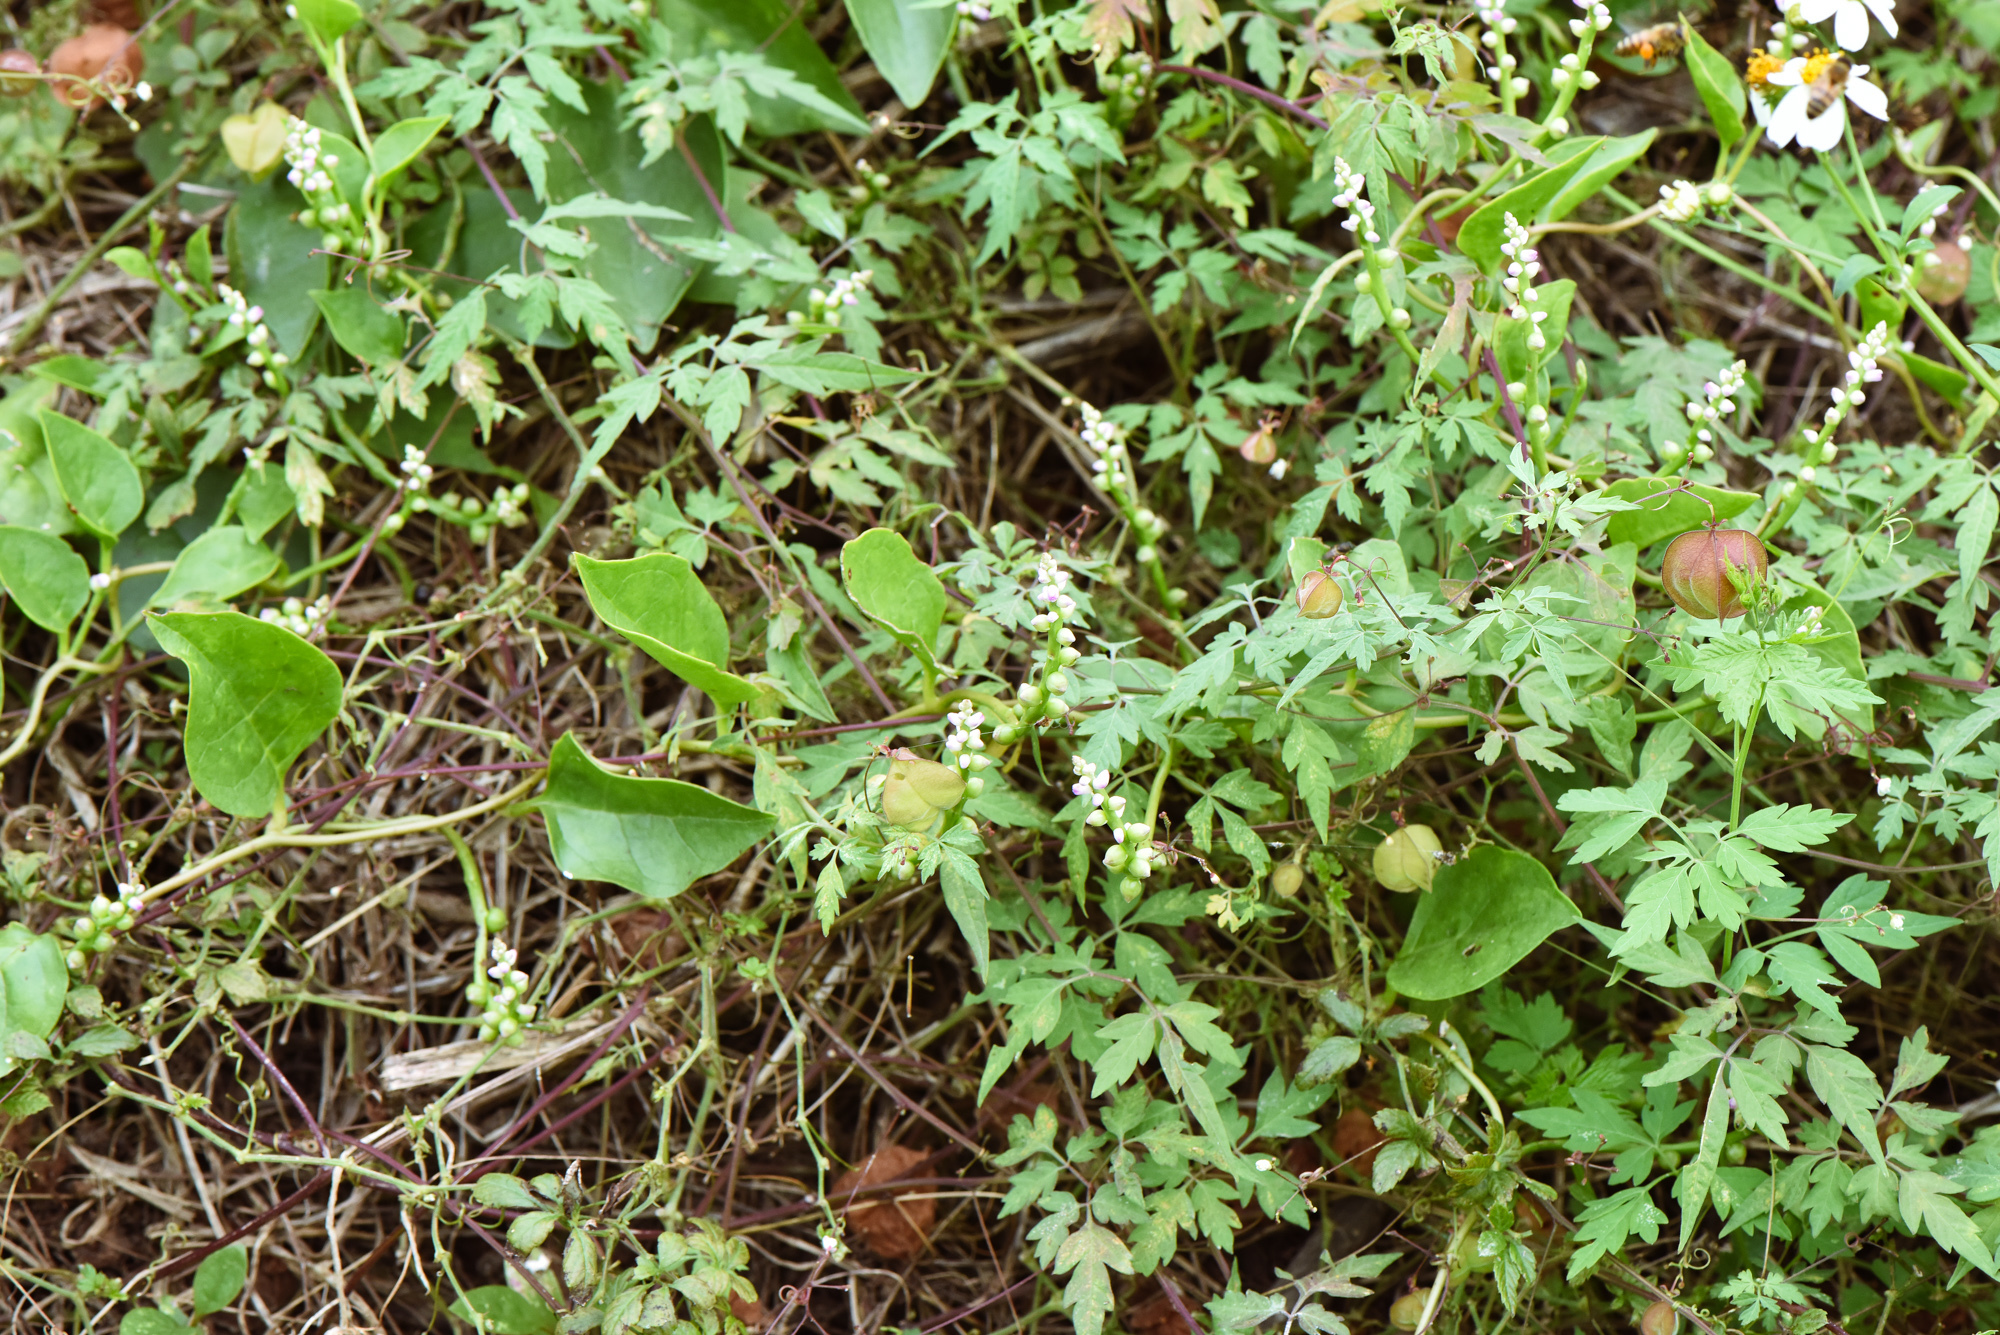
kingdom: Plantae
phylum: Tracheophyta
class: Magnoliopsida
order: Caryophyllales
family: Basellaceae
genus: Basella
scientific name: Basella alba
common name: Indian spinach
